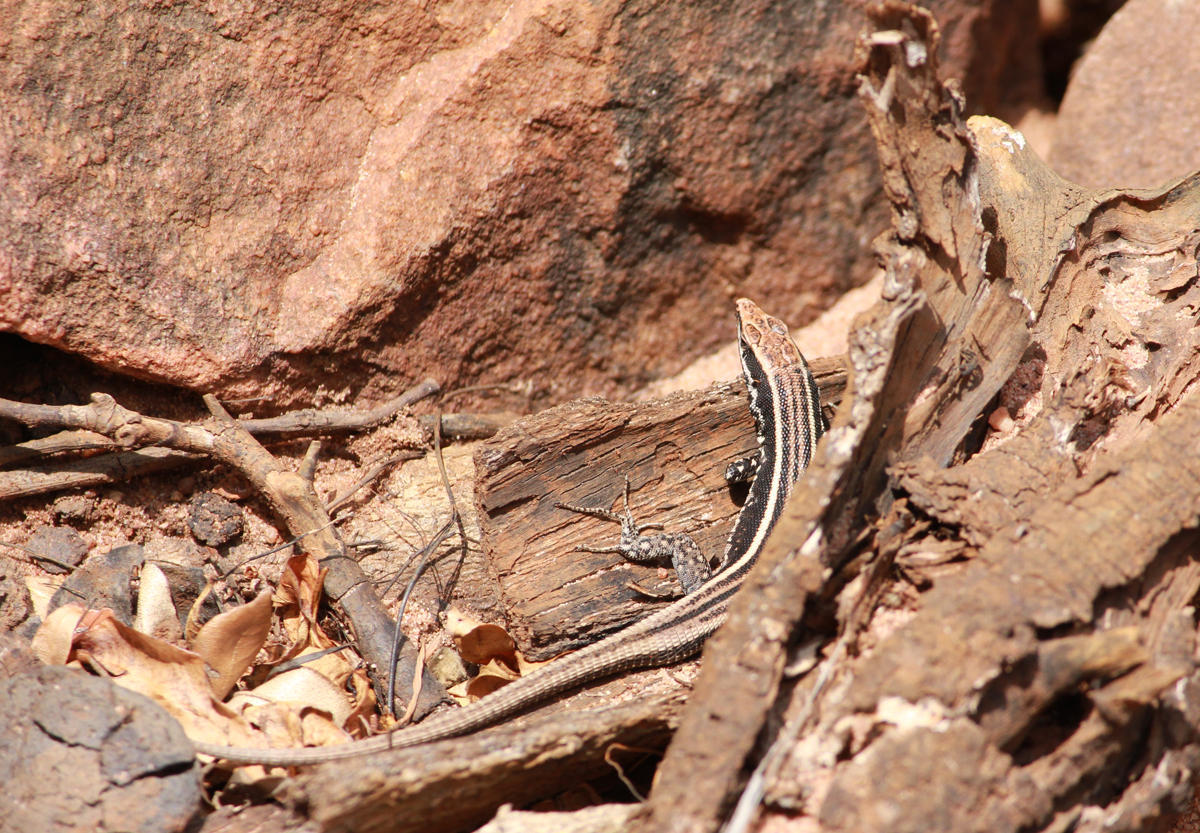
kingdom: Animalia
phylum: Chordata
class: Squamata
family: Lacertidae
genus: Vhembelacerta
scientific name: Vhembelacerta rupicola
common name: Soutpansberg rock lizard
